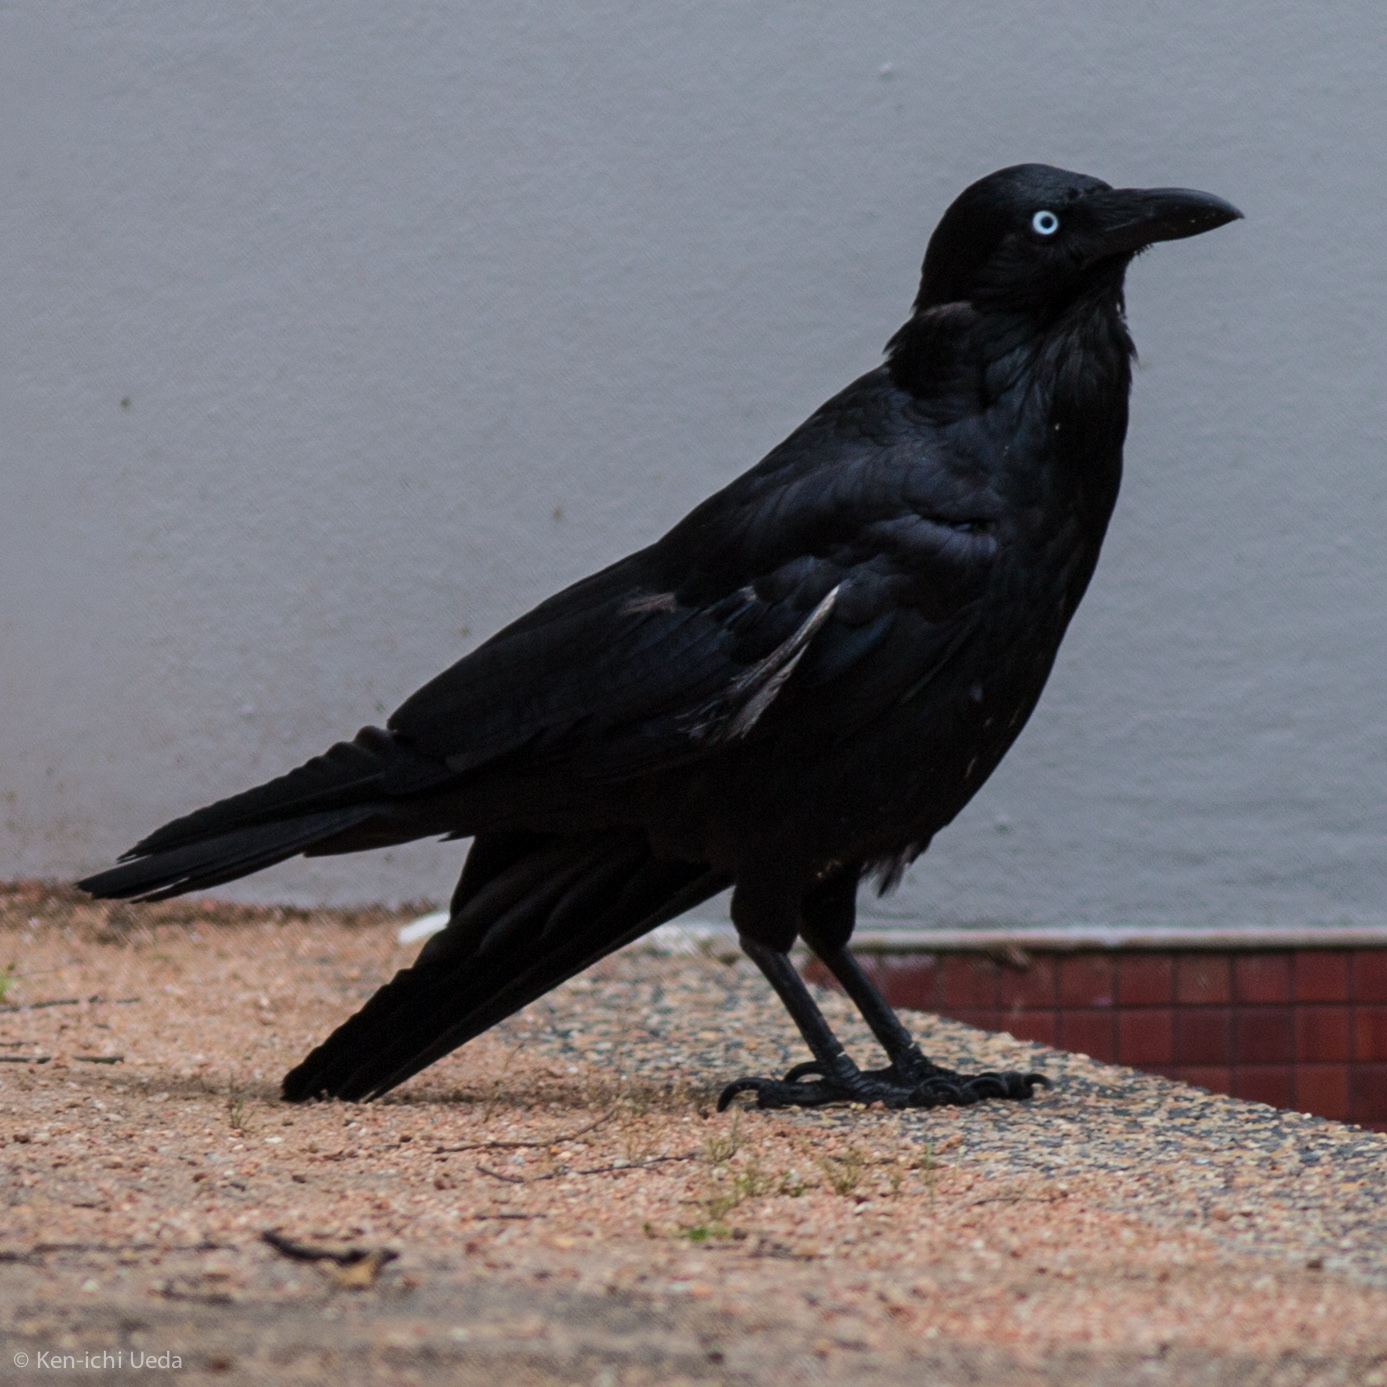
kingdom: Animalia
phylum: Chordata
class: Aves
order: Passeriformes
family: Corvidae
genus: Corvus
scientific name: Corvus coronoides
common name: Australian raven
